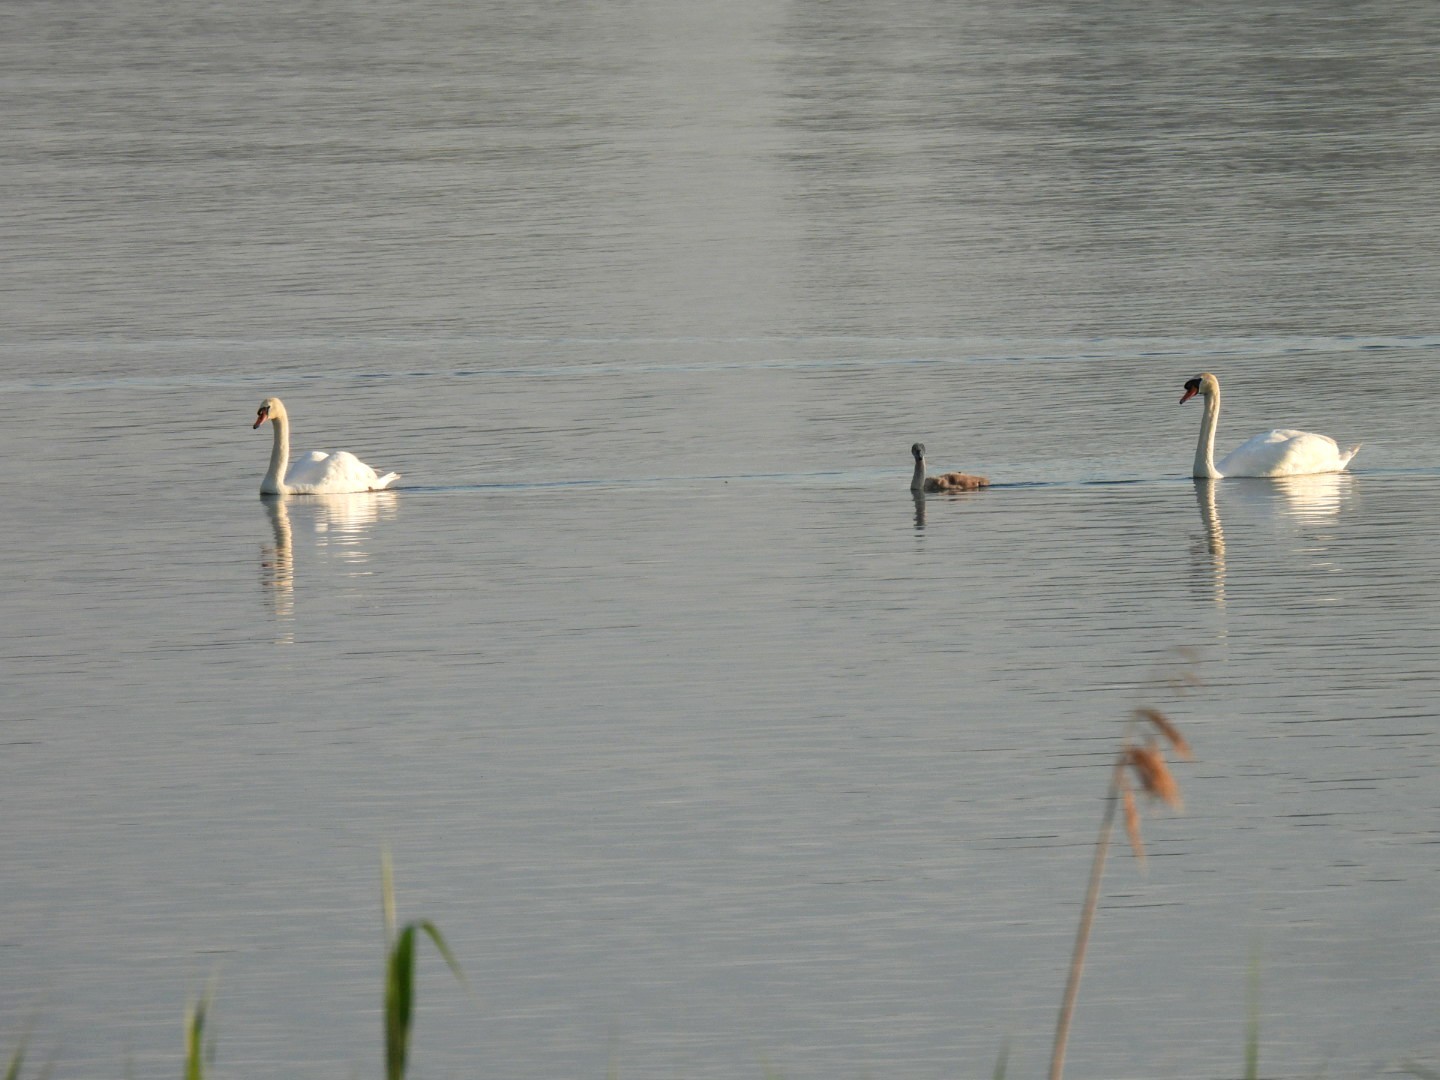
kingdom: Animalia
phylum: Chordata
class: Aves
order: Anseriformes
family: Anatidae
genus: Cygnus
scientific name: Cygnus olor
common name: Mute swan
